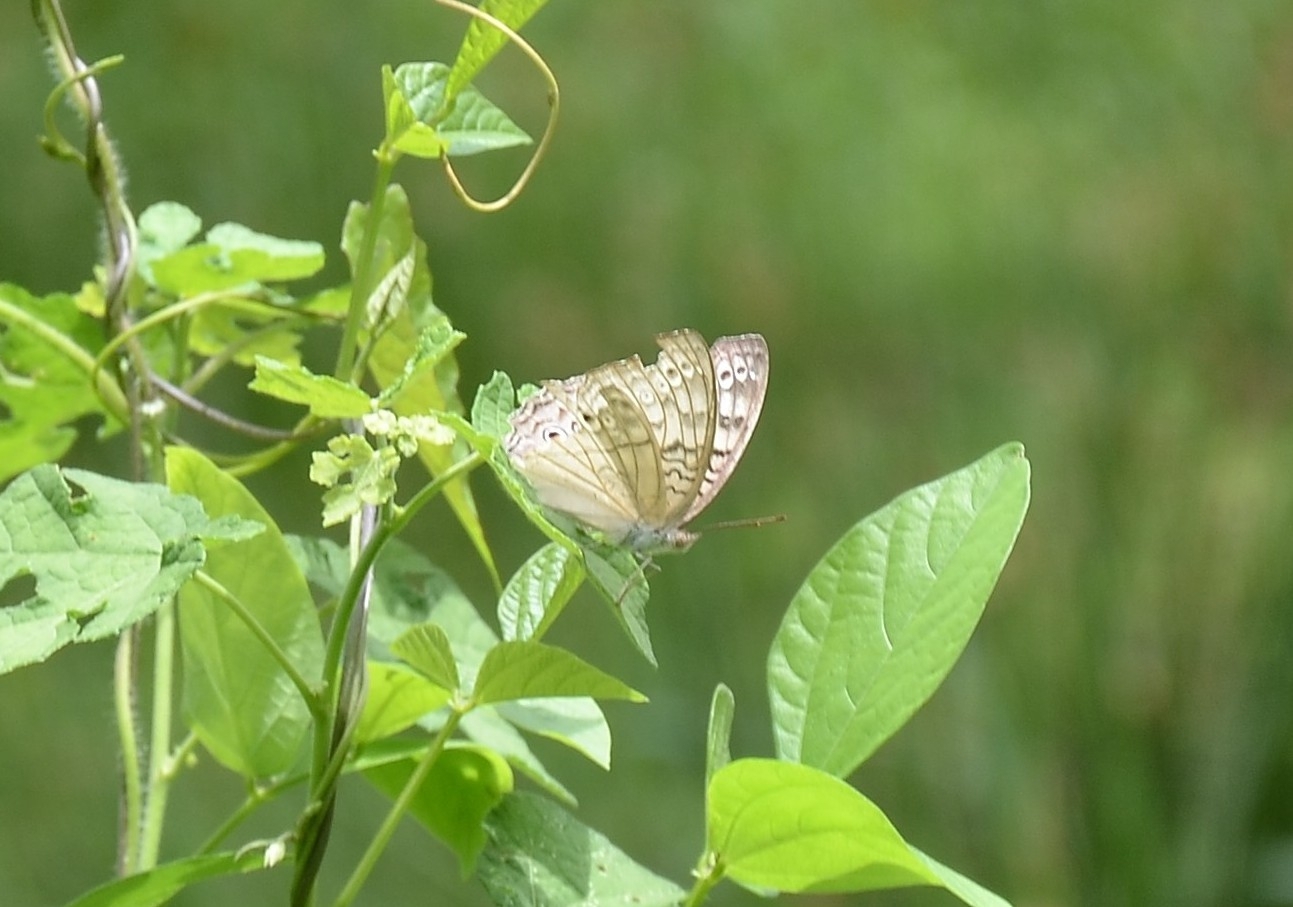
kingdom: Animalia
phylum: Arthropoda
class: Insecta
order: Lepidoptera
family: Nymphalidae
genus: Junonia
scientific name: Junonia atlites
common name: Grey pansy
